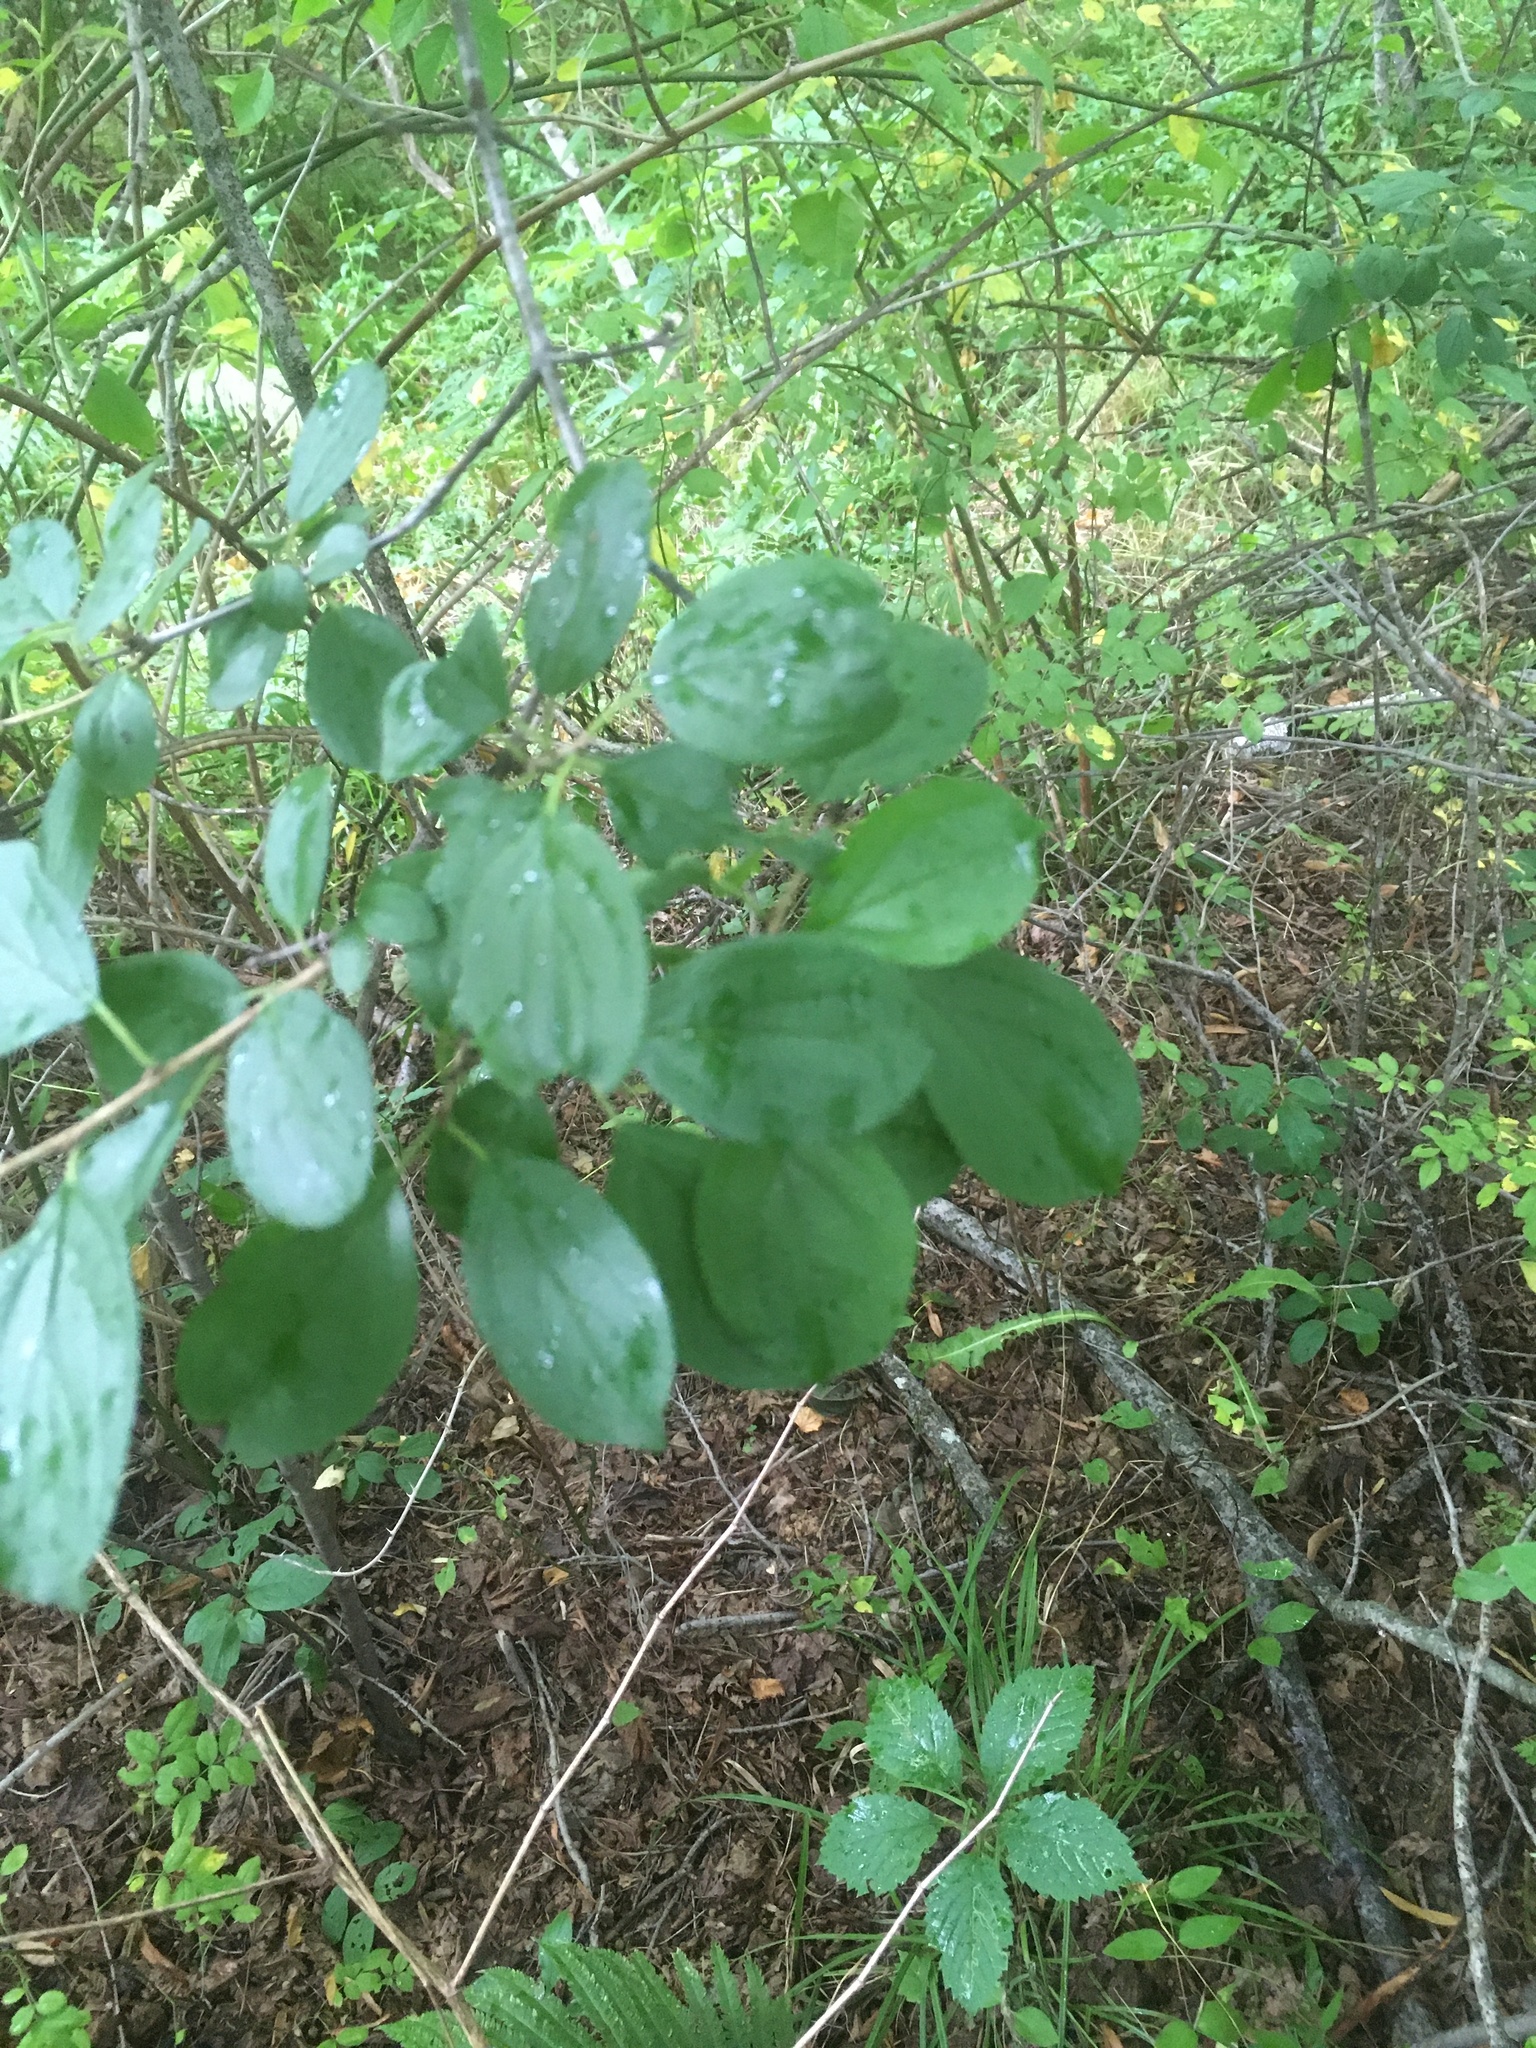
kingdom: Plantae
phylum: Tracheophyta
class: Magnoliopsida
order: Rosales
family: Rhamnaceae
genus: Rhamnus
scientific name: Rhamnus cathartica
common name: Common buckthorn
